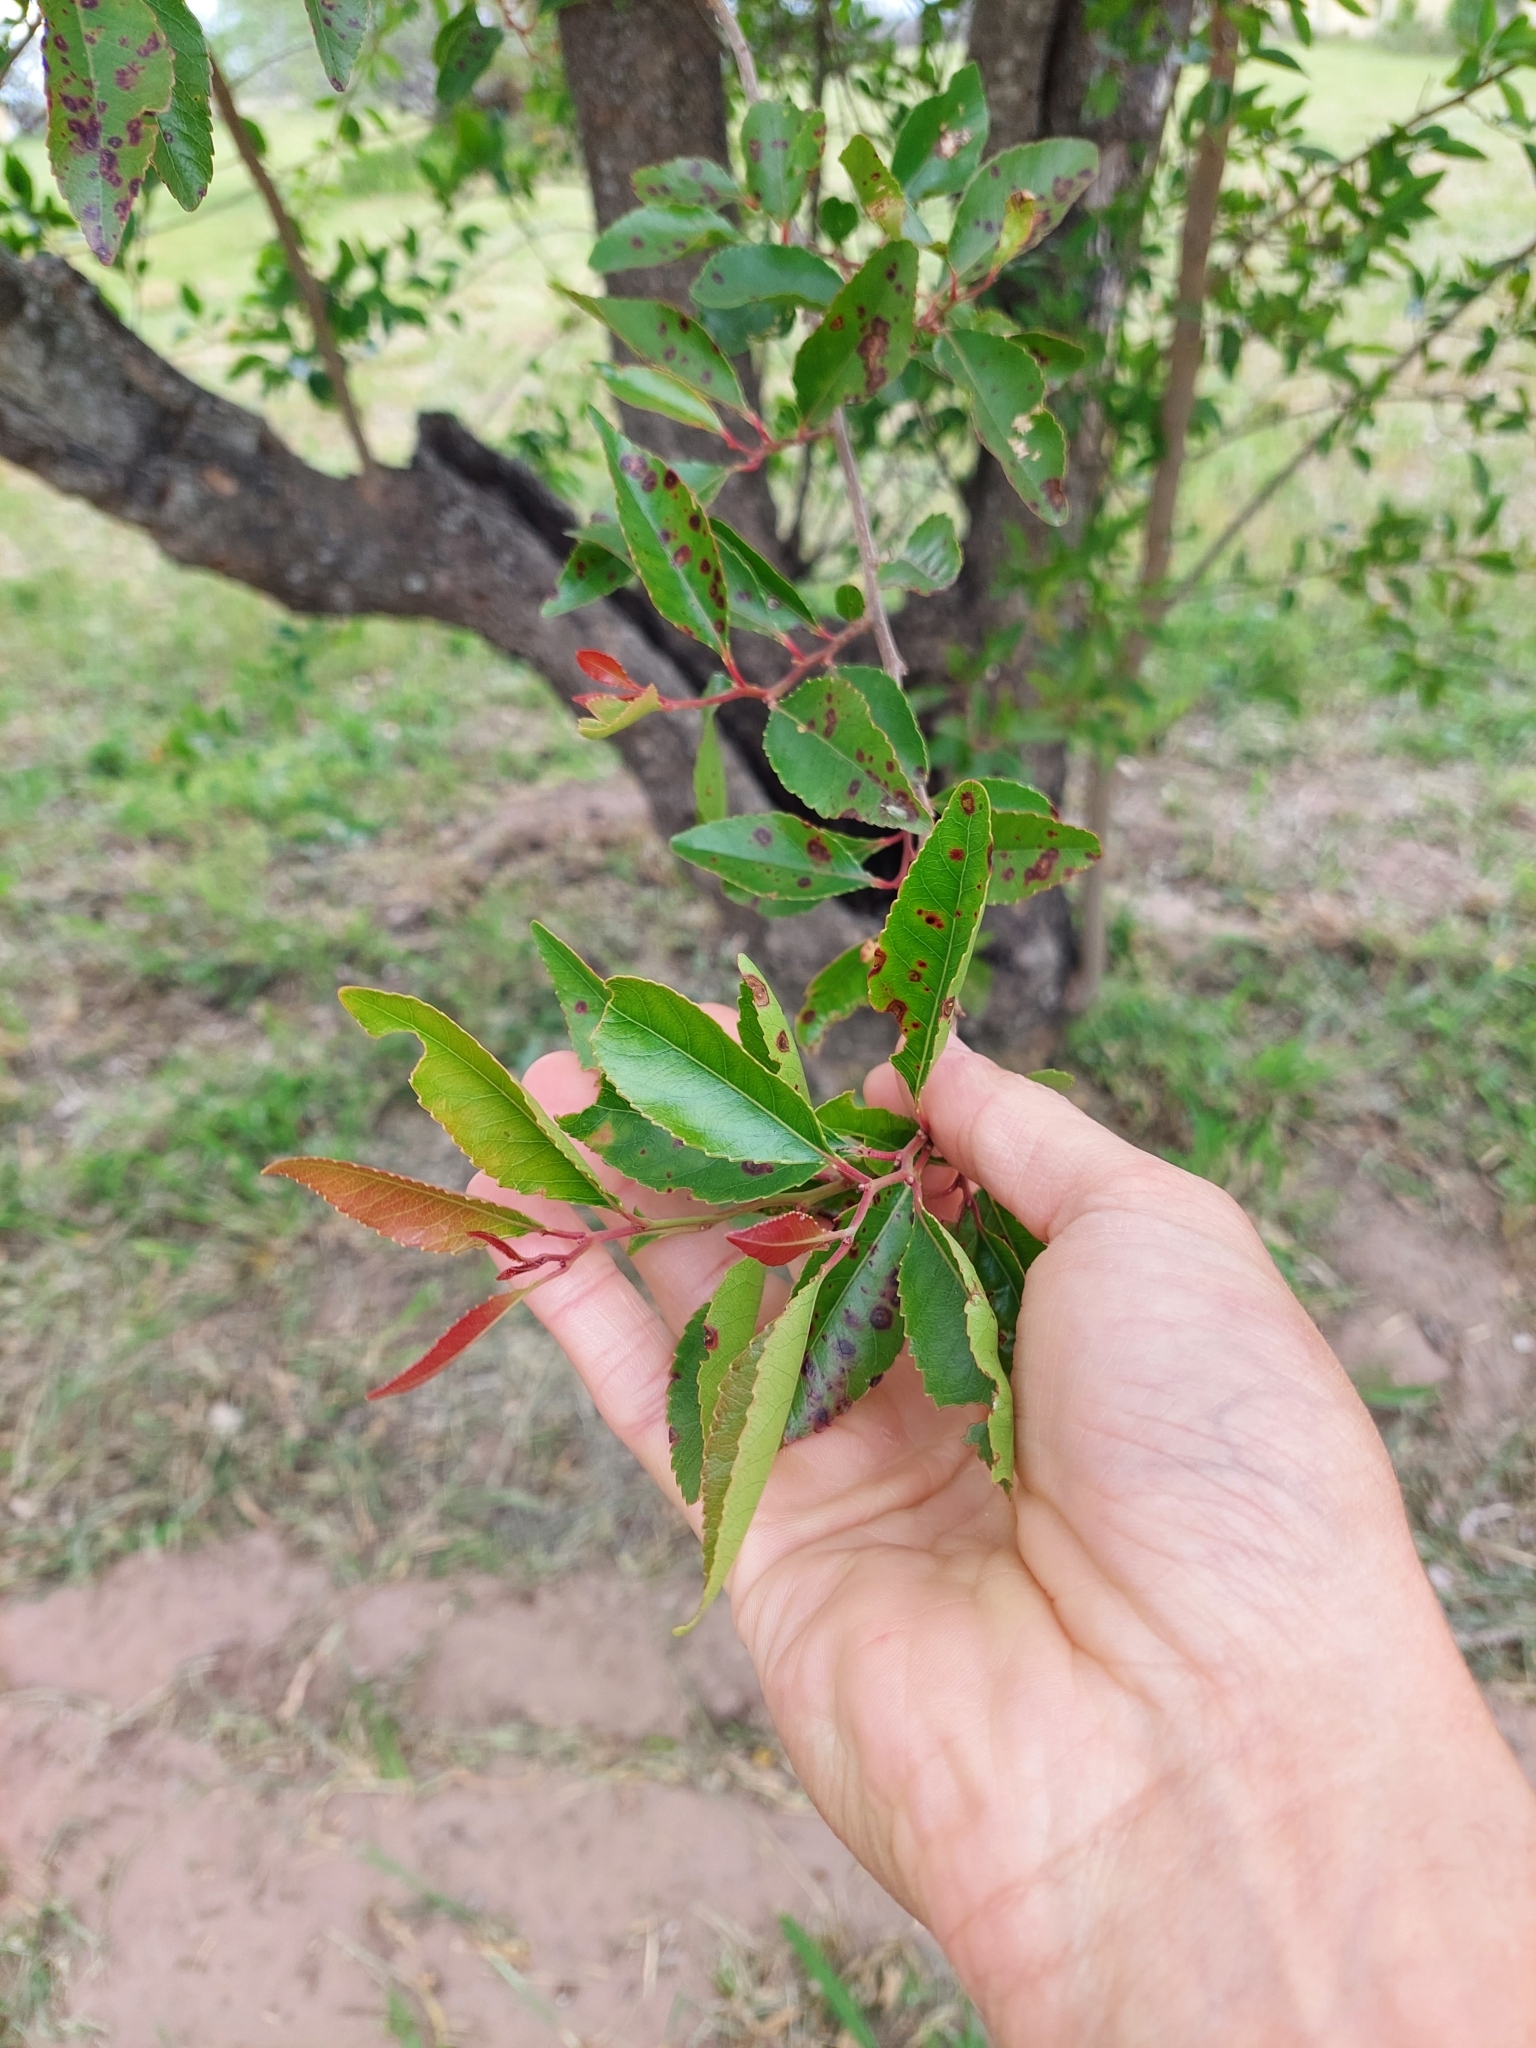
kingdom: Plantae
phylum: Tracheophyta
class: Magnoliopsida
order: Malpighiales
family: Salicaceae
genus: Xylosma
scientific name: Xylosma venosa
